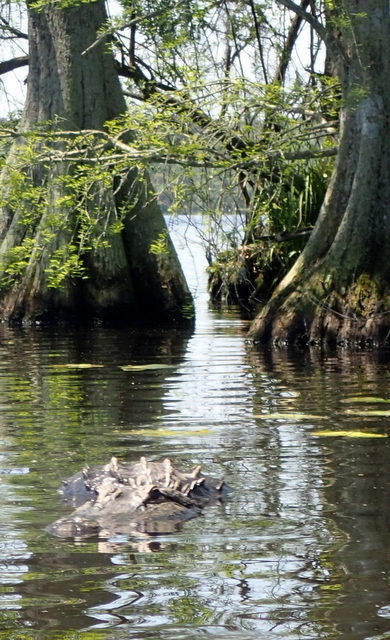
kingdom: Animalia
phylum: Chordata
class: Crocodylia
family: Alligatoridae
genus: Alligator
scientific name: Alligator mississippiensis
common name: American alligator
